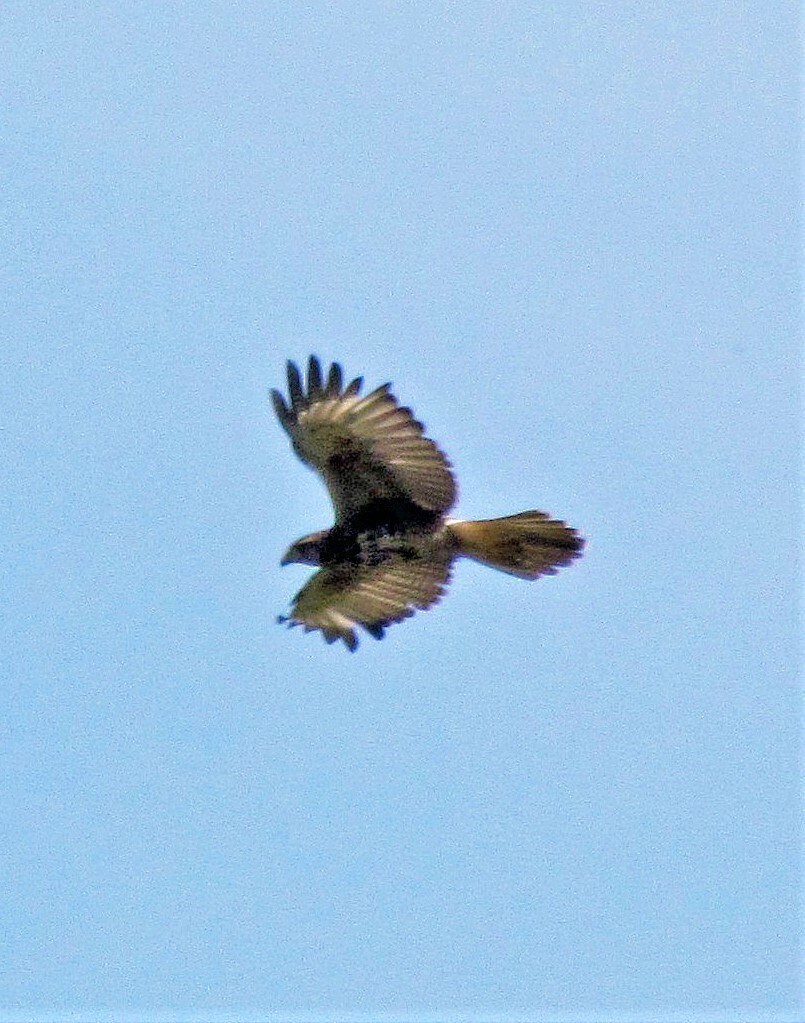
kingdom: Animalia
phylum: Chordata
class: Aves
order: Accipitriformes
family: Accipitridae
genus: Parabuteo
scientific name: Parabuteo unicinctus
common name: Harris's hawk
